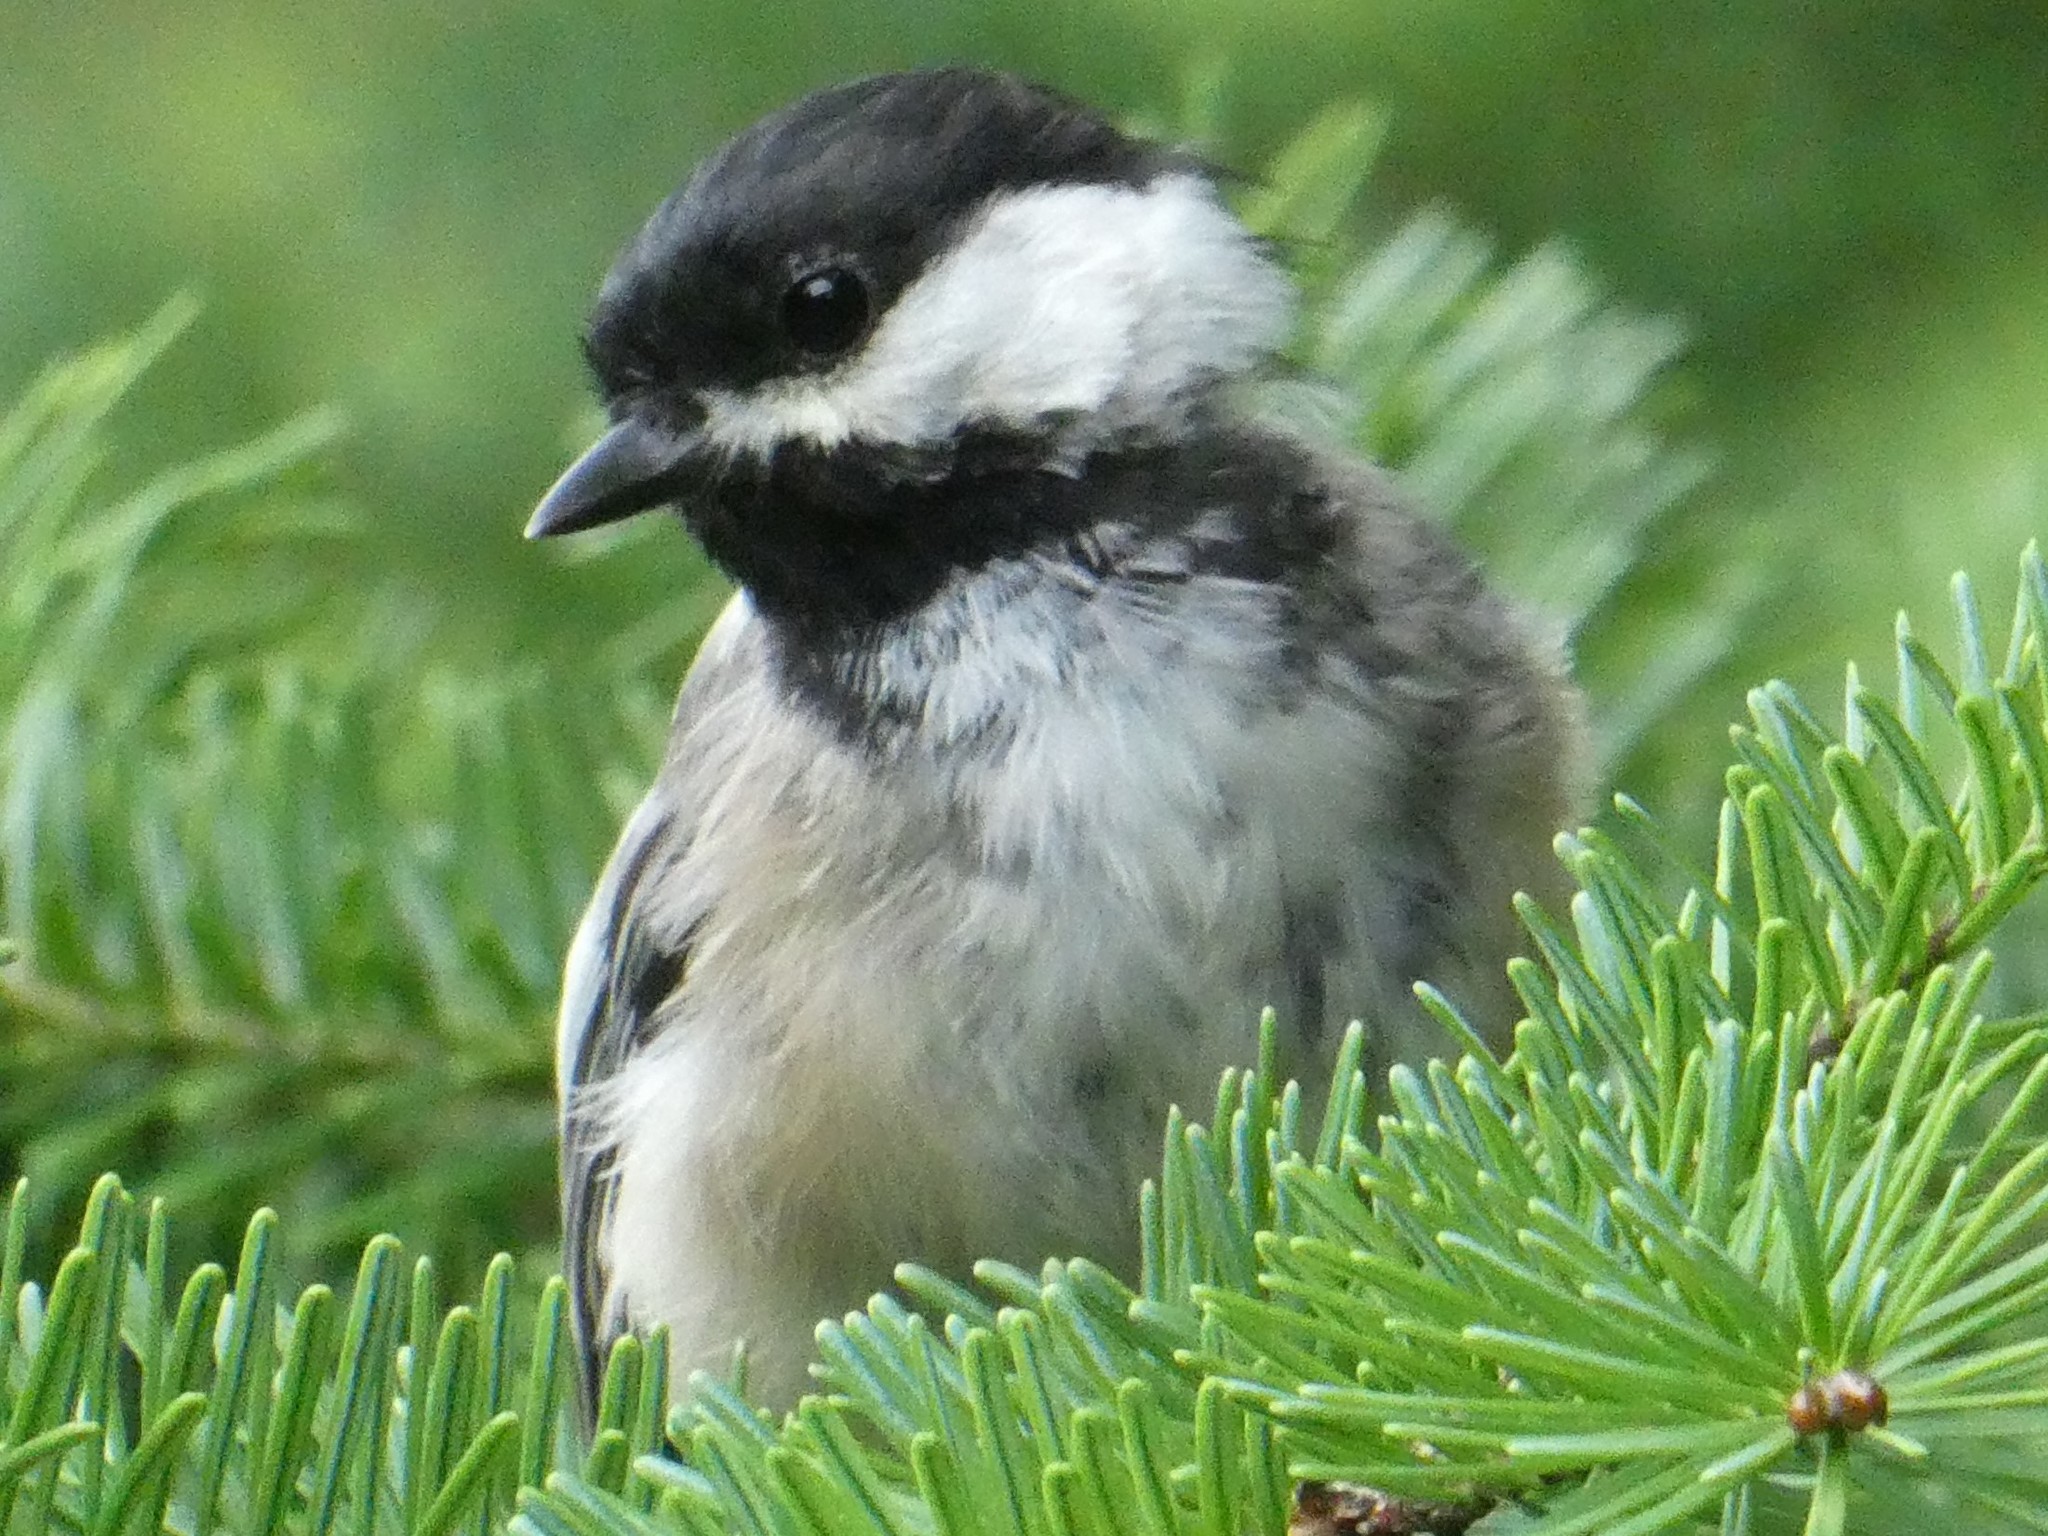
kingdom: Animalia
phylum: Chordata
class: Aves
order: Passeriformes
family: Paridae
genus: Poecile
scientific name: Poecile atricapillus
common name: Black-capped chickadee
